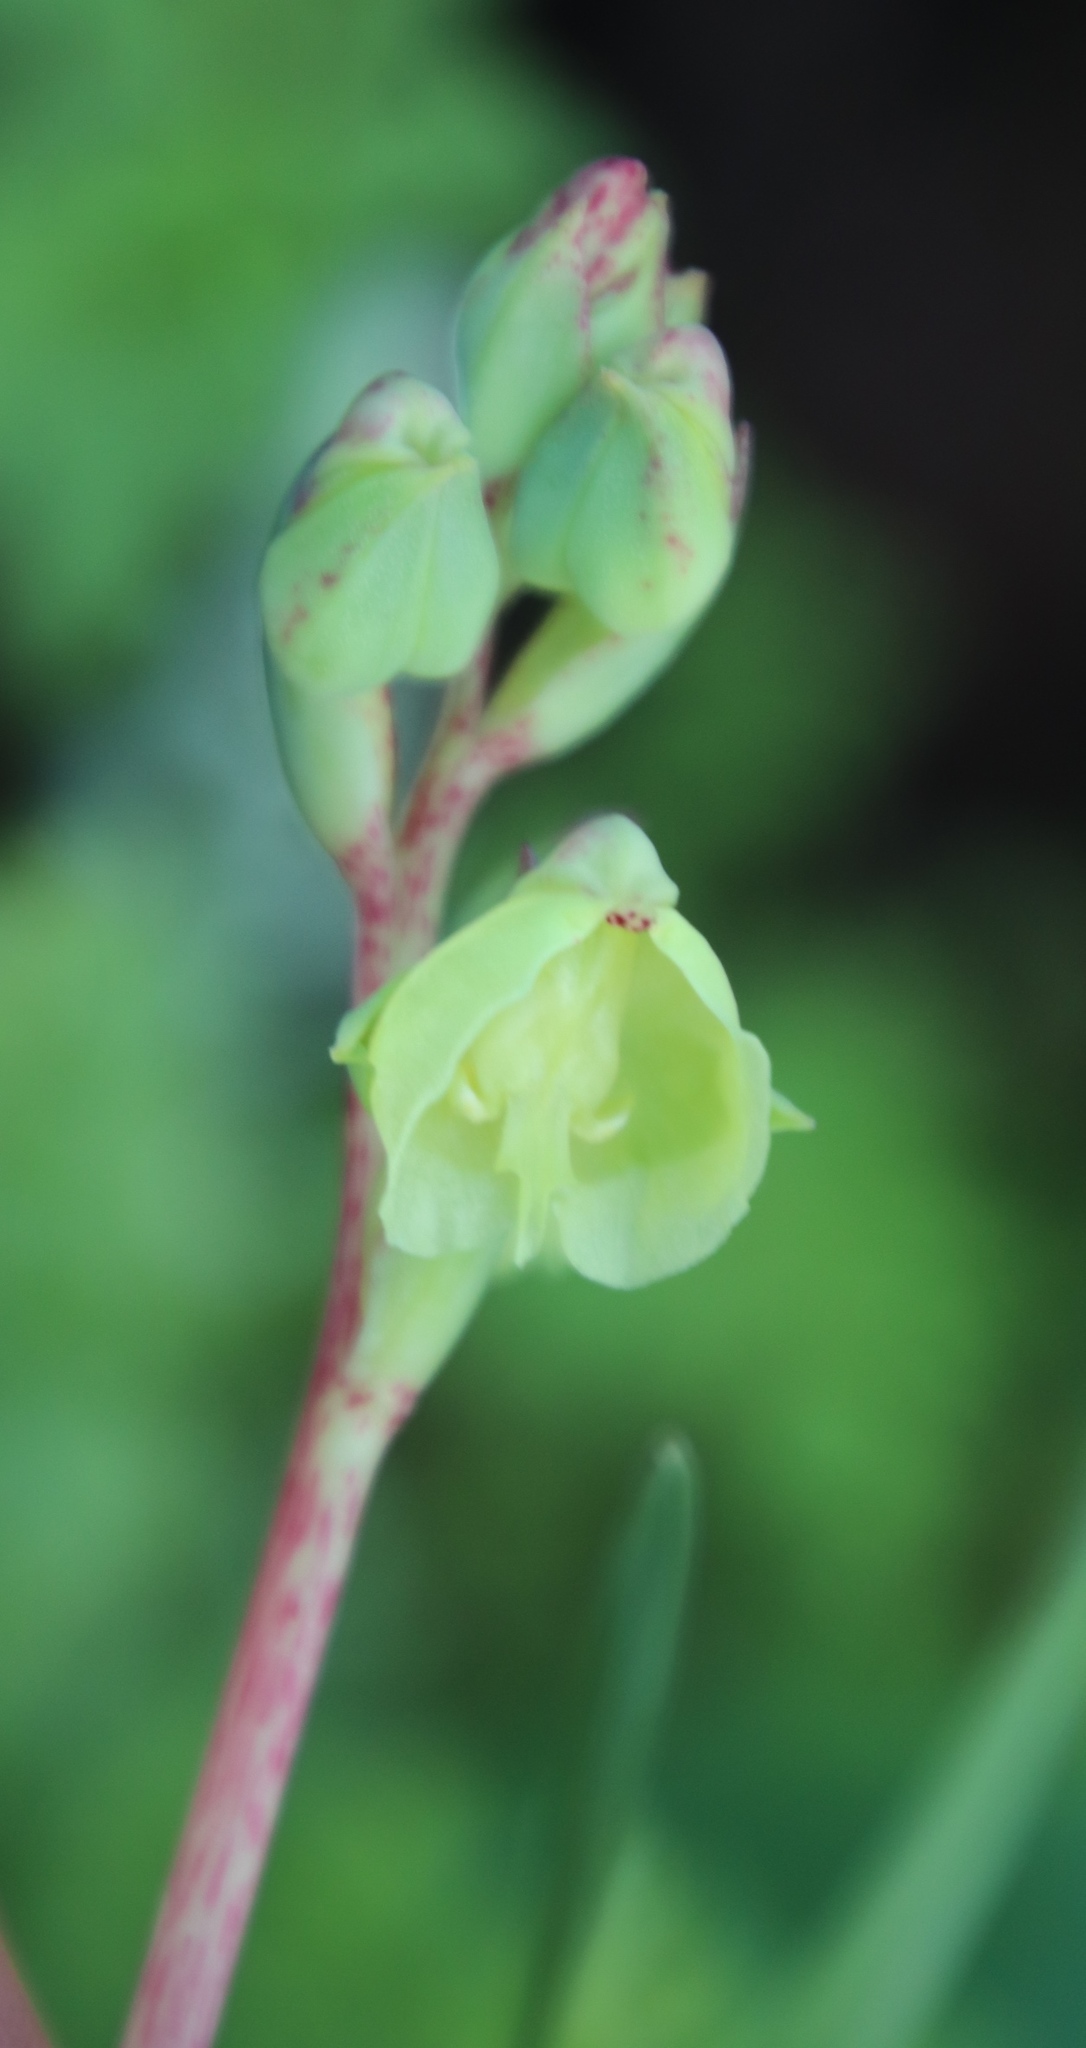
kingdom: Plantae
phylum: Tracheophyta
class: Liliopsida
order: Asparagales
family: Orchidaceae
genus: Pterygodium
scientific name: Pterygodium catholicum
